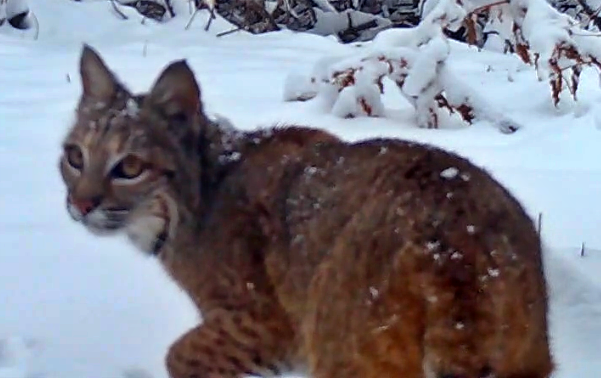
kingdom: Animalia
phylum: Chordata
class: Mammalia
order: Carnivora
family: Felidae
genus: Lynx
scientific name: Lynx rufus
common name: Bobcat
